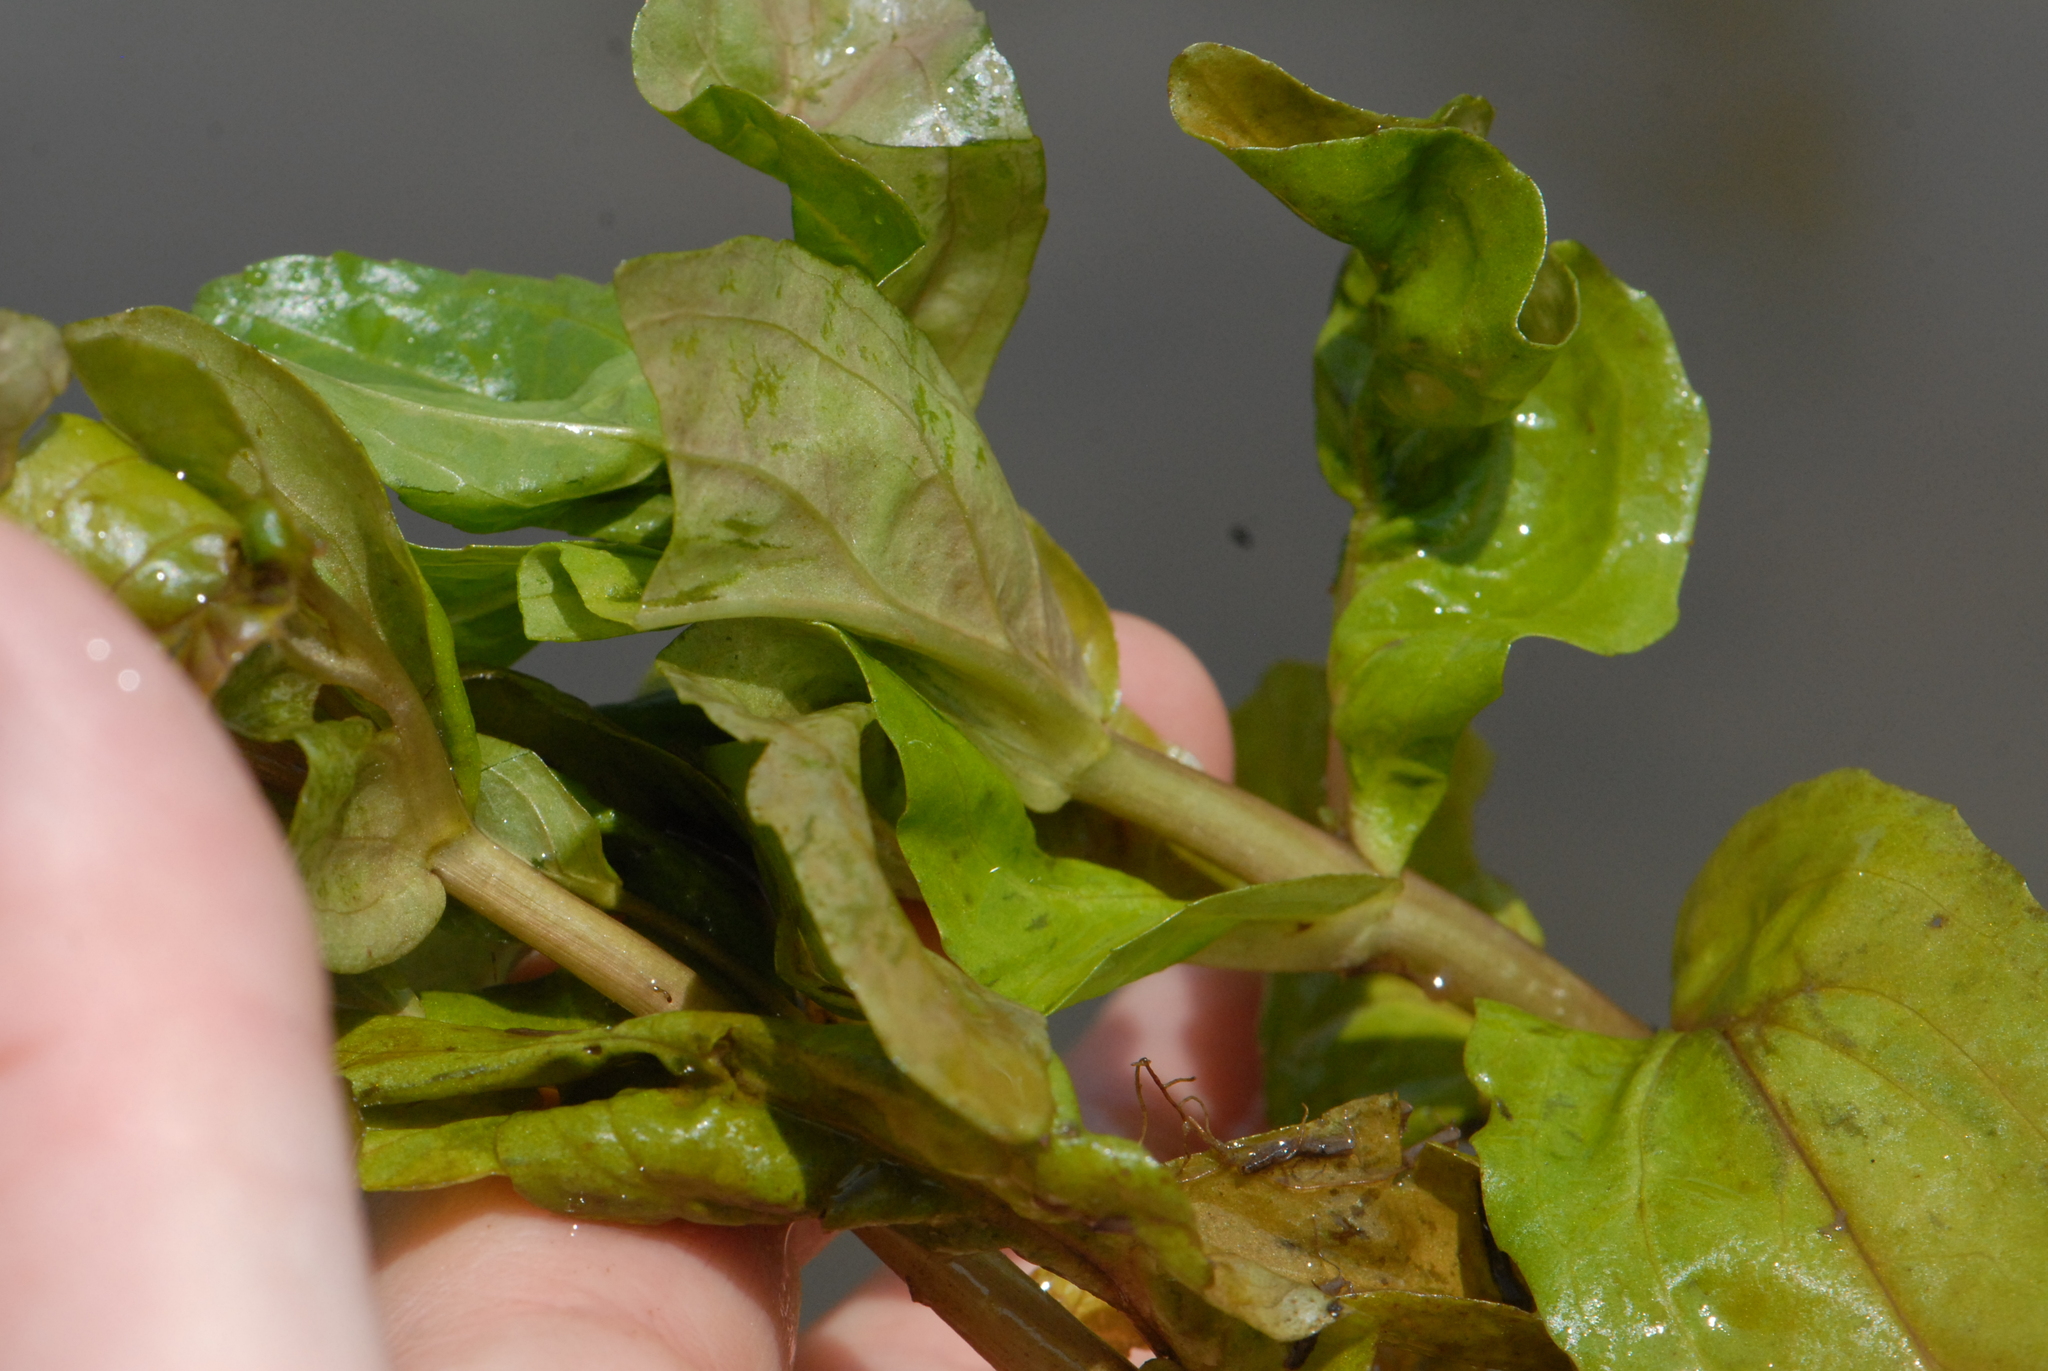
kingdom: Plantae
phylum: Tracheophyta
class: Magnoliopsida
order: Lamiales
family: Plantaginaceae
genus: Veronica
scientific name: Veronica anagallis-aquatica
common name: Water speedwell
